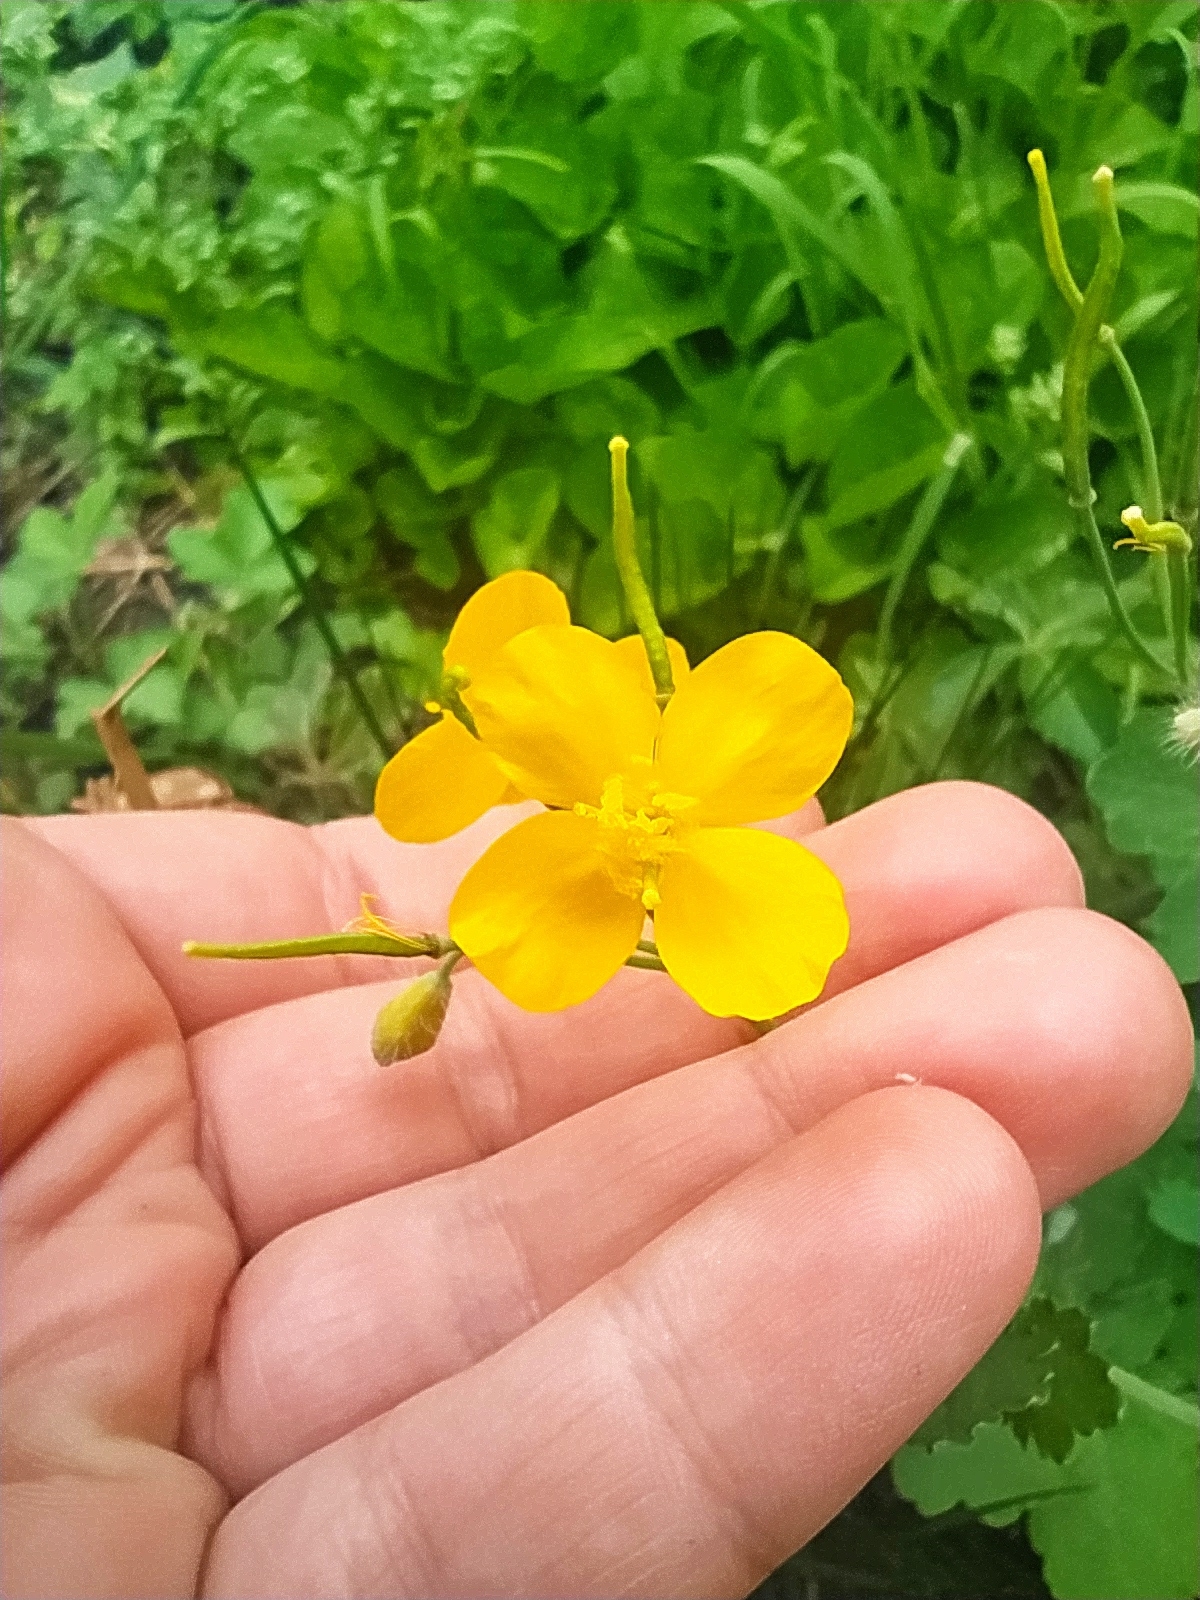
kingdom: Plantae
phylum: Tracheophyta
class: Magnoliopsida
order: Ranunculales
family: Papaveraceae
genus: Chelidonium
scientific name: Chelidonium majus
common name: Greater celandine
